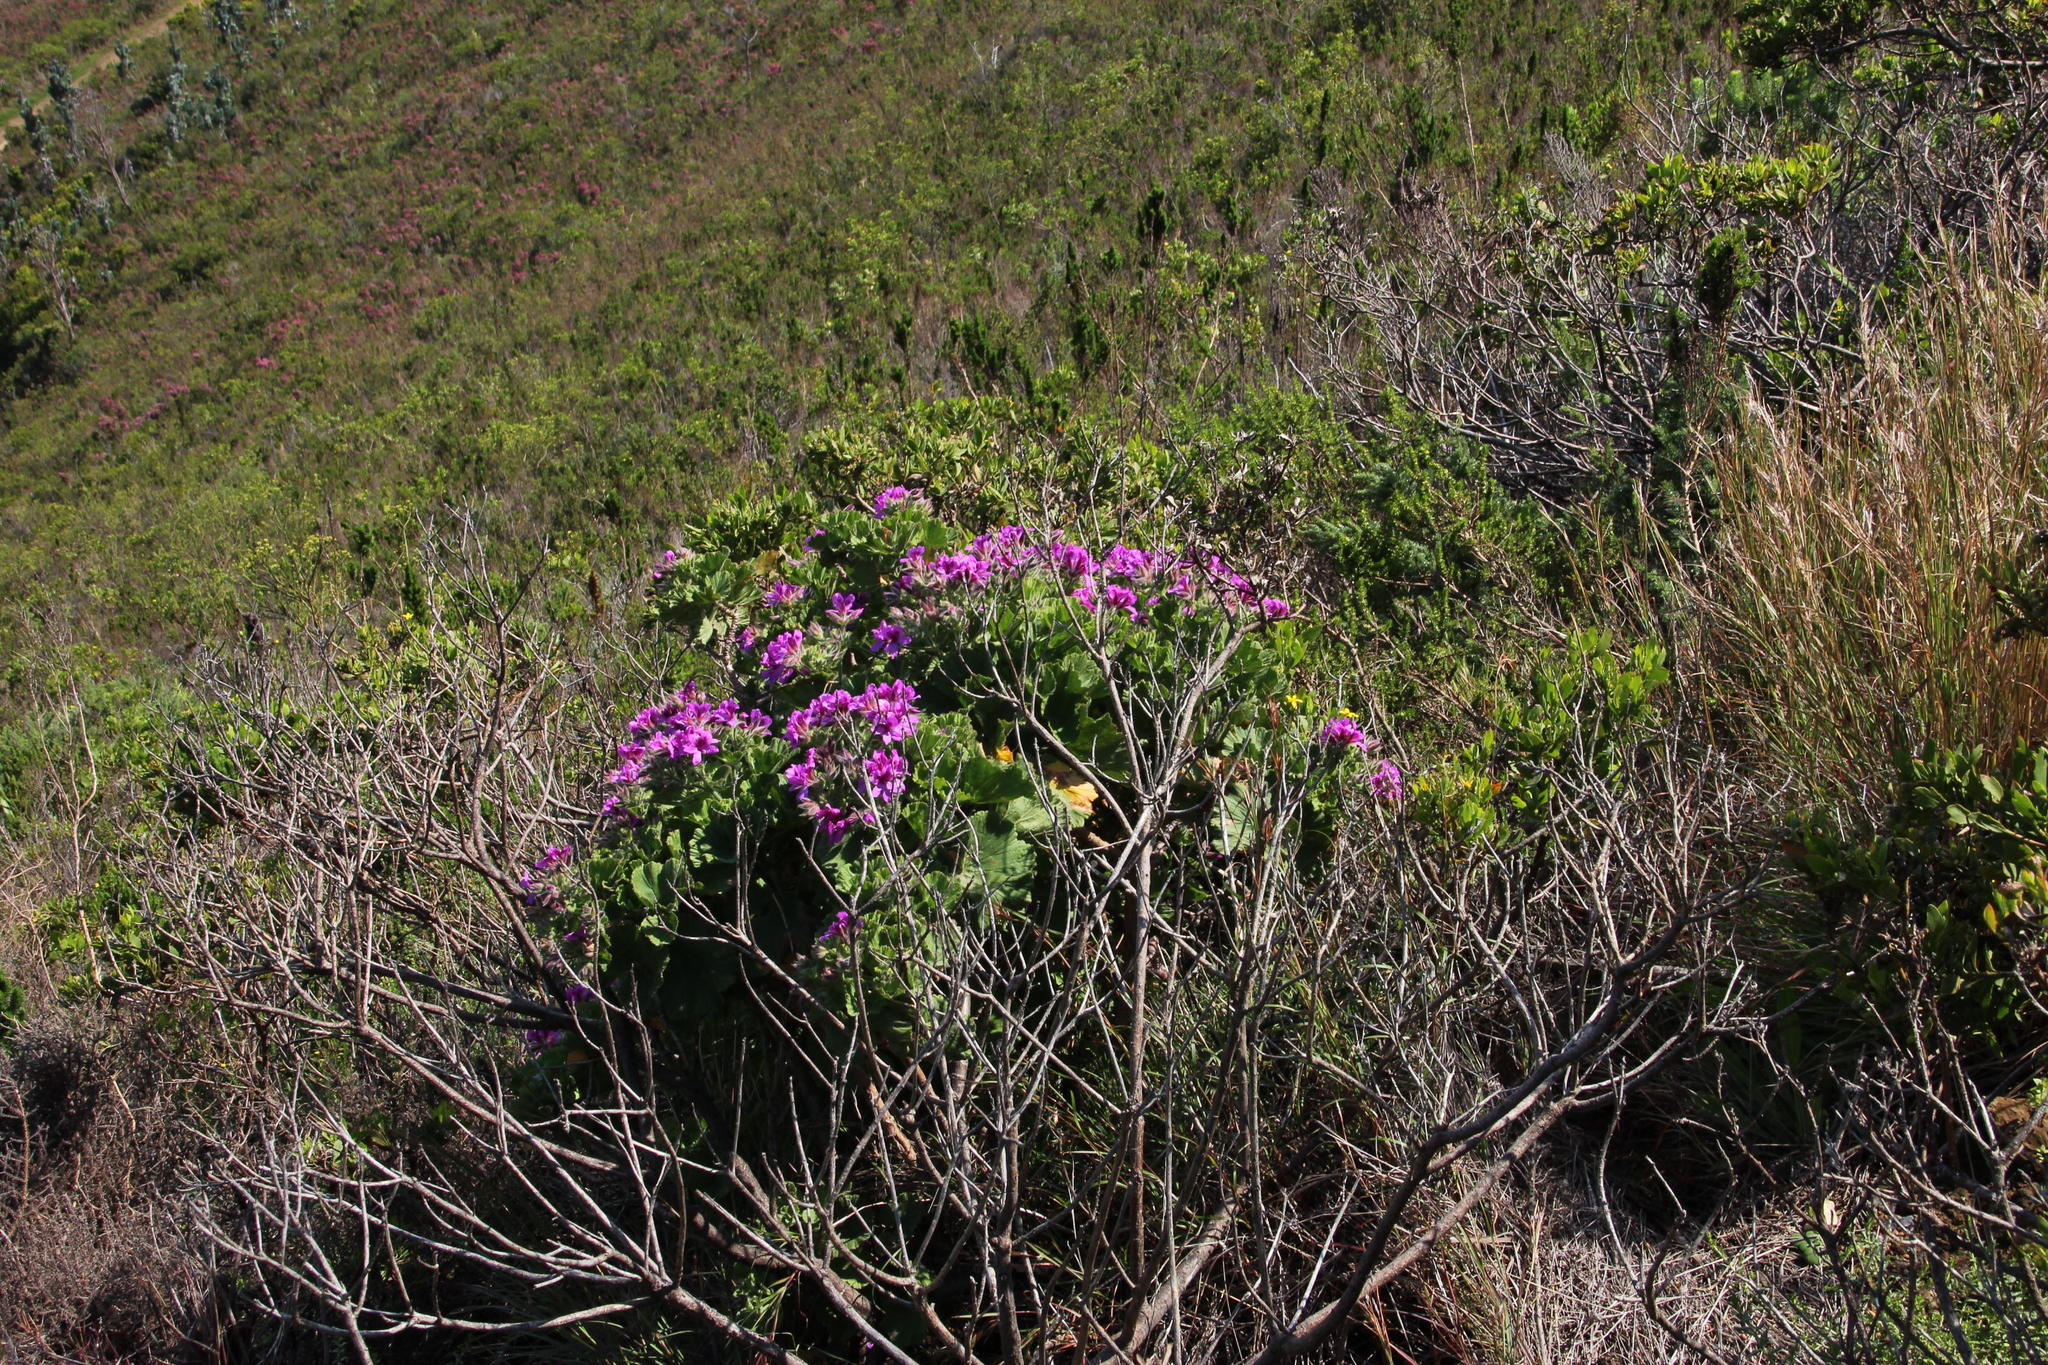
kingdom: Plantae
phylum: Tracheophyta
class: Magnoliopsida
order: Geraniales
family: Geraniaceae
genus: Pelargonium
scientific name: Pelargonium cucullatum
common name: Tree pelargonium
